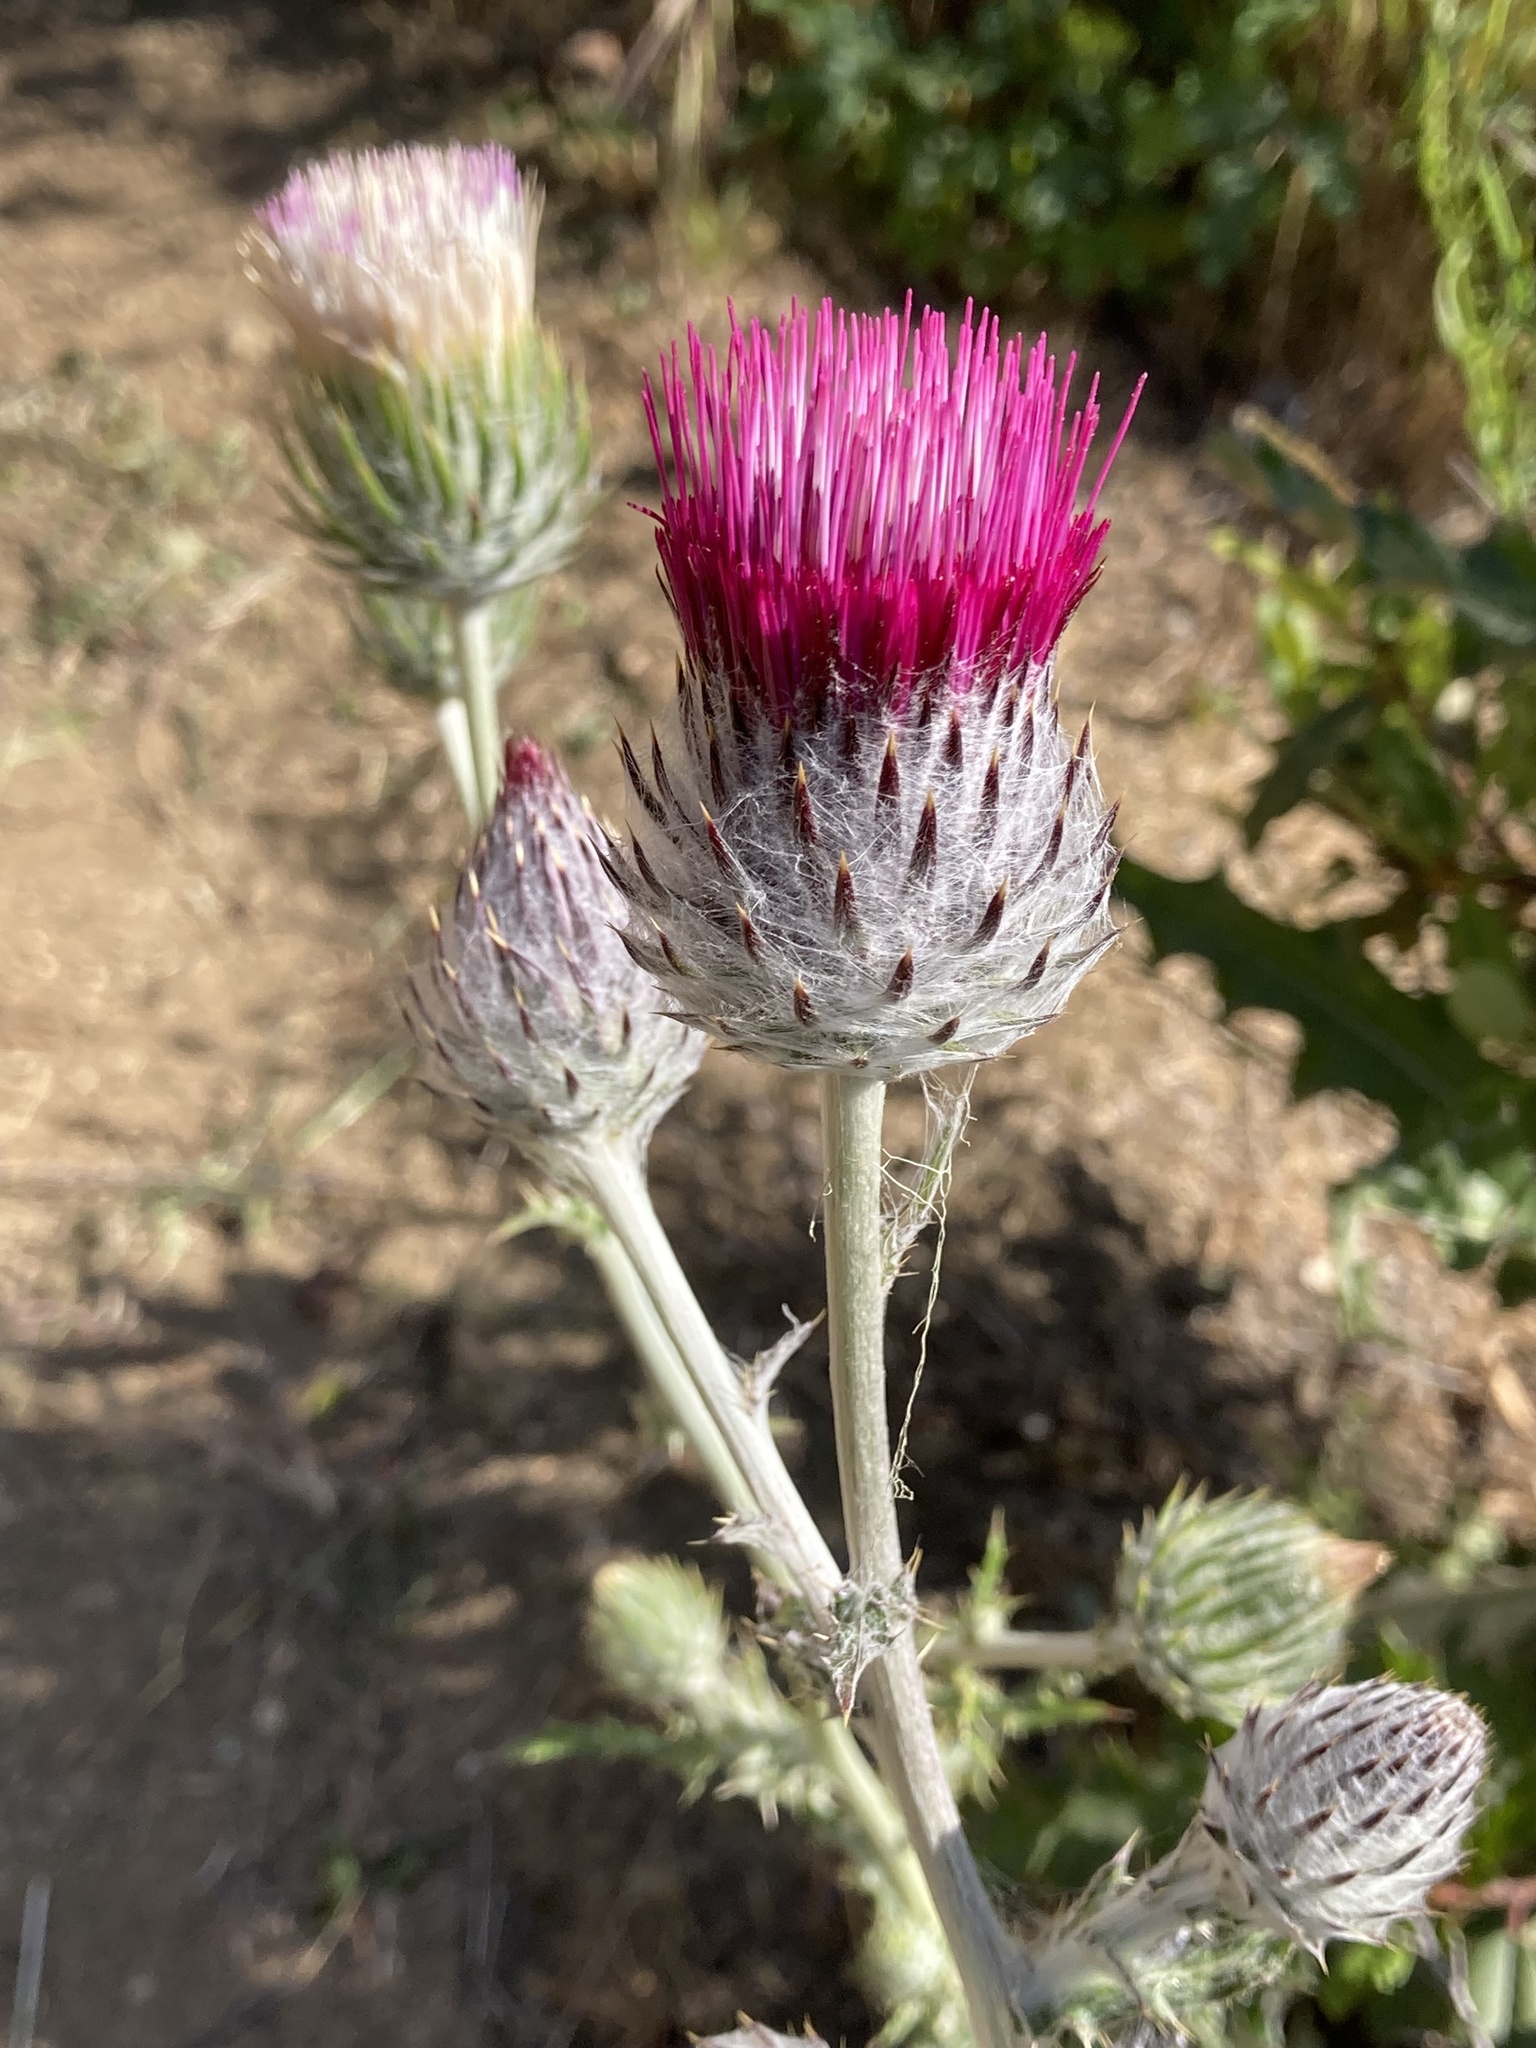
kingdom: Plantae
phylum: Tracheophyta
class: Magnoliopsida
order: Asterales
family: Asteraceae
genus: Cirsium
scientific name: Cirsium occidentale
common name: Western thistle
